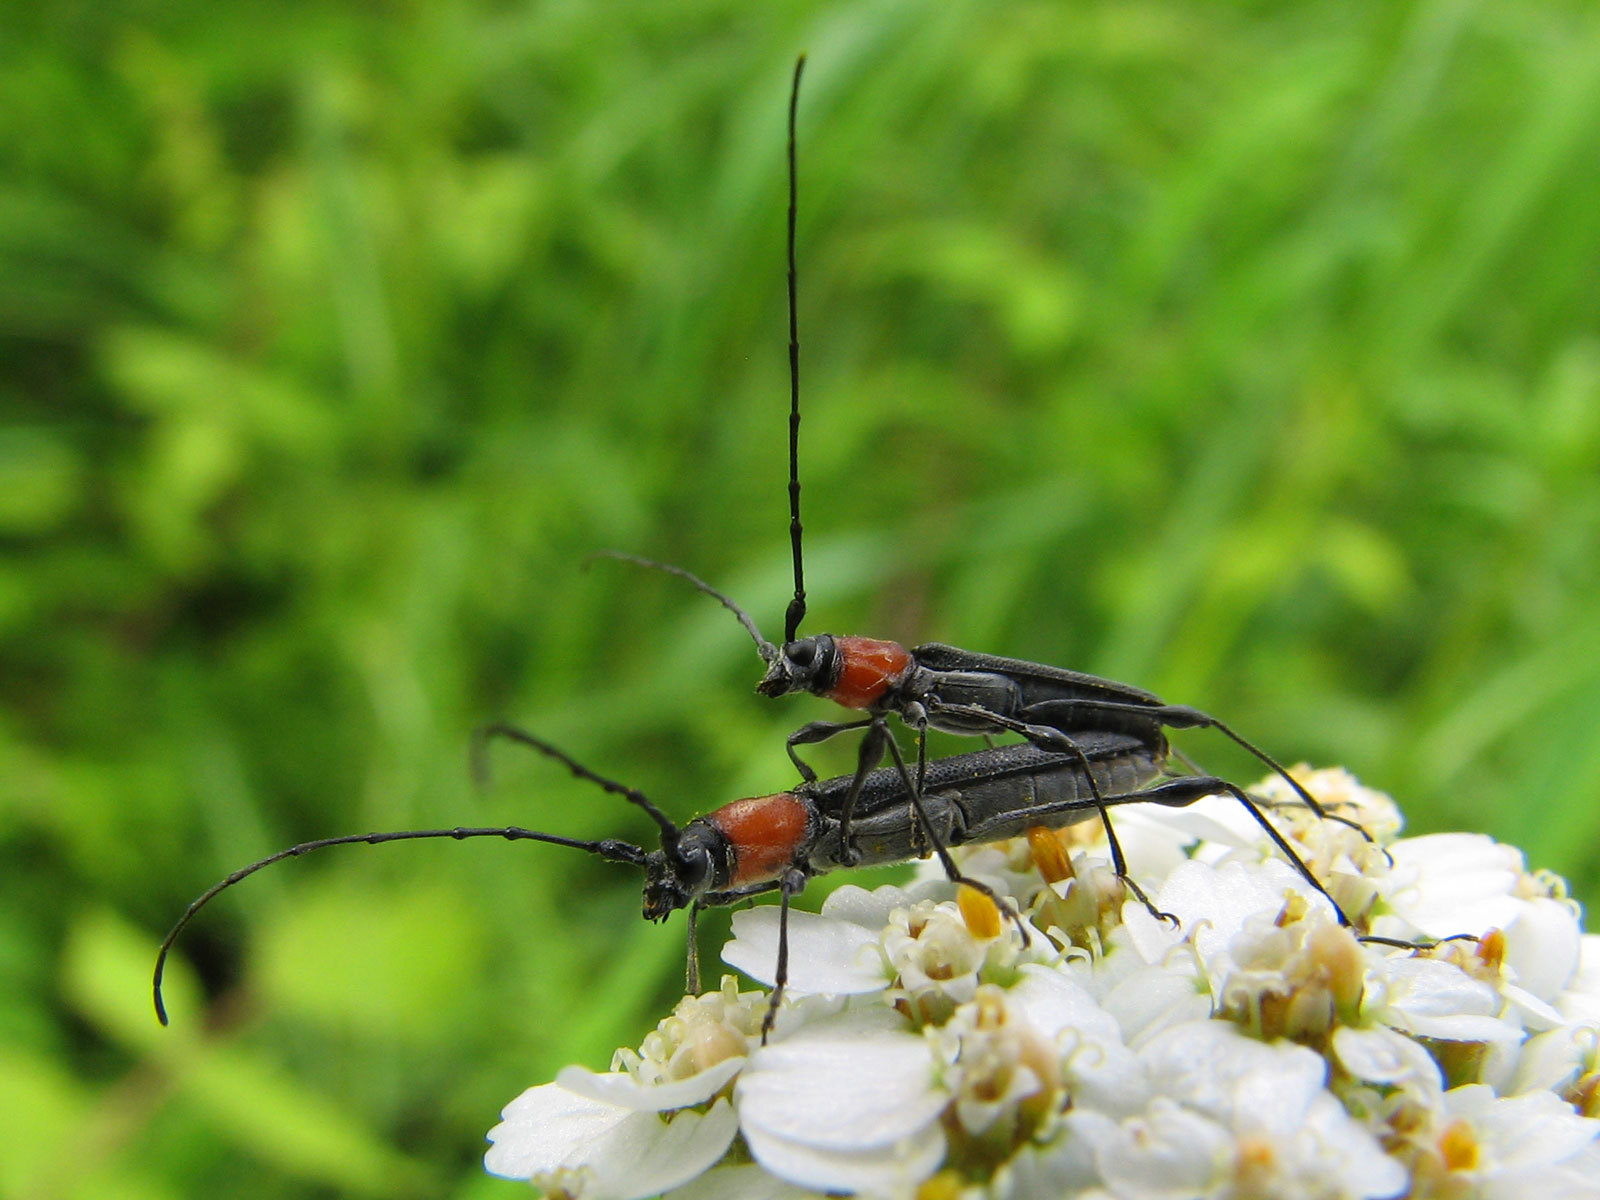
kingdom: Animalia
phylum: Arthropoda
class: Insecta
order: Coleoptera
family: Cerambycidae
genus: Rhopalophora
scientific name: Rhopalophora meeskei
